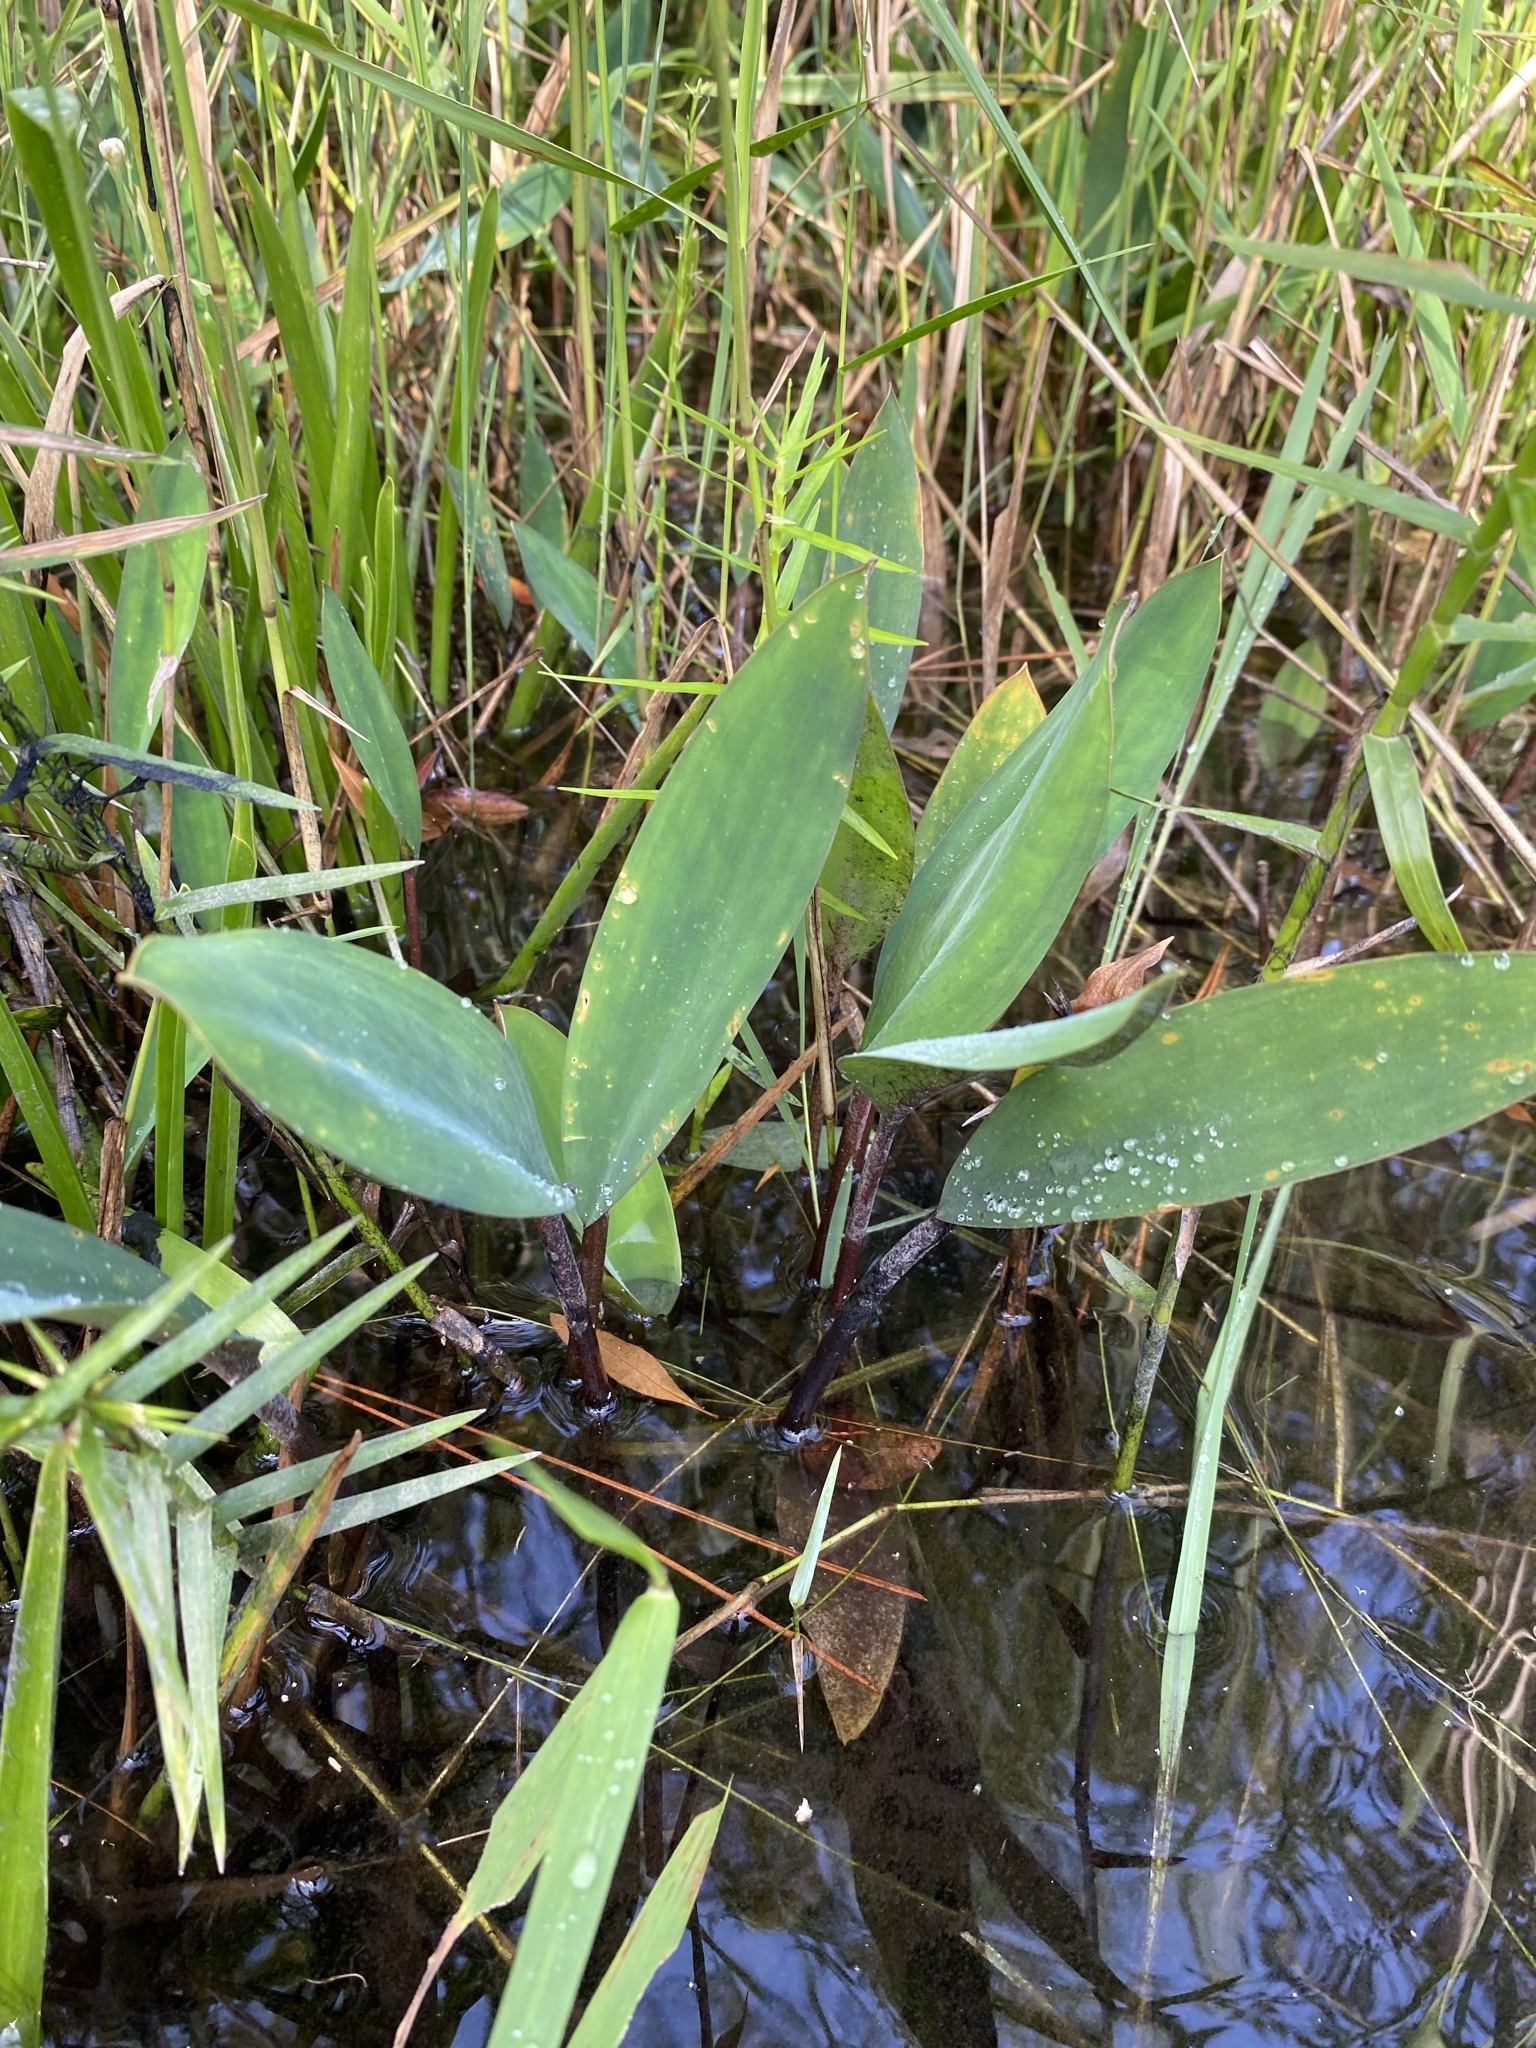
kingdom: Plantae
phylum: Tracheophyta
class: Liliopsida
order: Alismatales
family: Araceae
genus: Orontium
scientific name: Orontium aquaticum
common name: Golden-club
